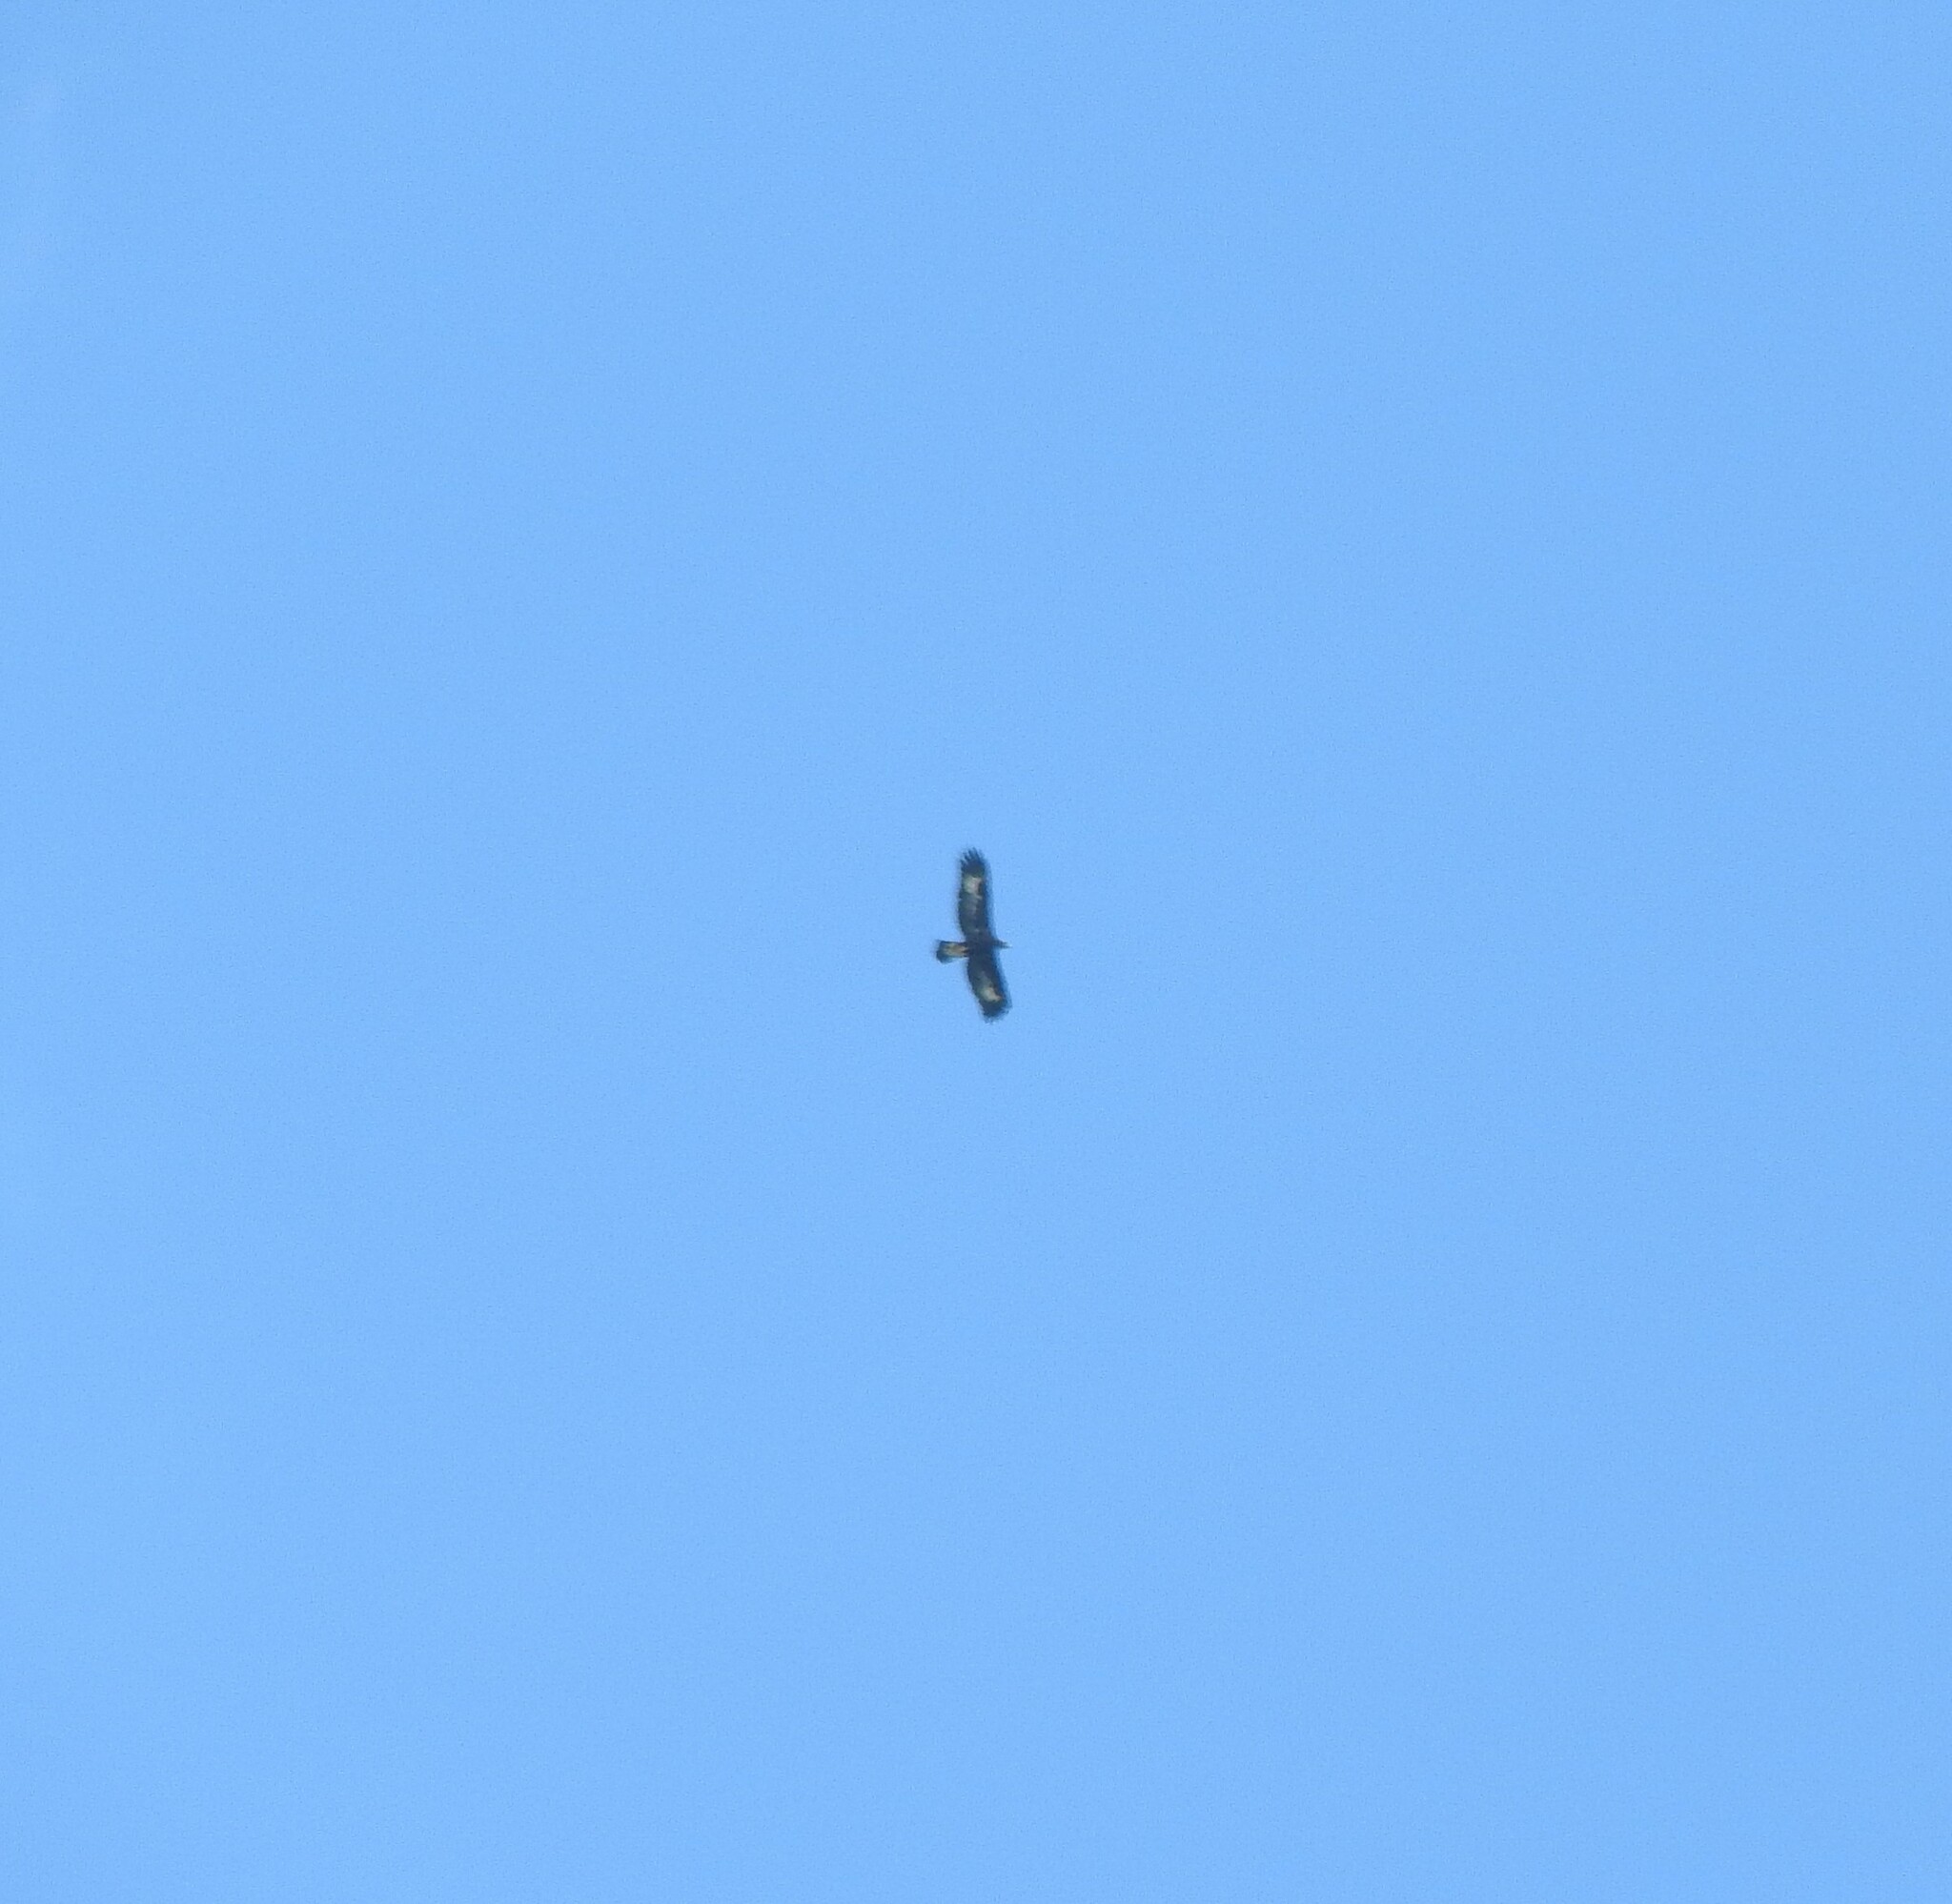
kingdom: Animalia
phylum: Chordata
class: Aves
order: Accipitriformes
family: Accipitridae
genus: Aquila
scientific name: Aquila chrysaetos
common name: Golden eagle
